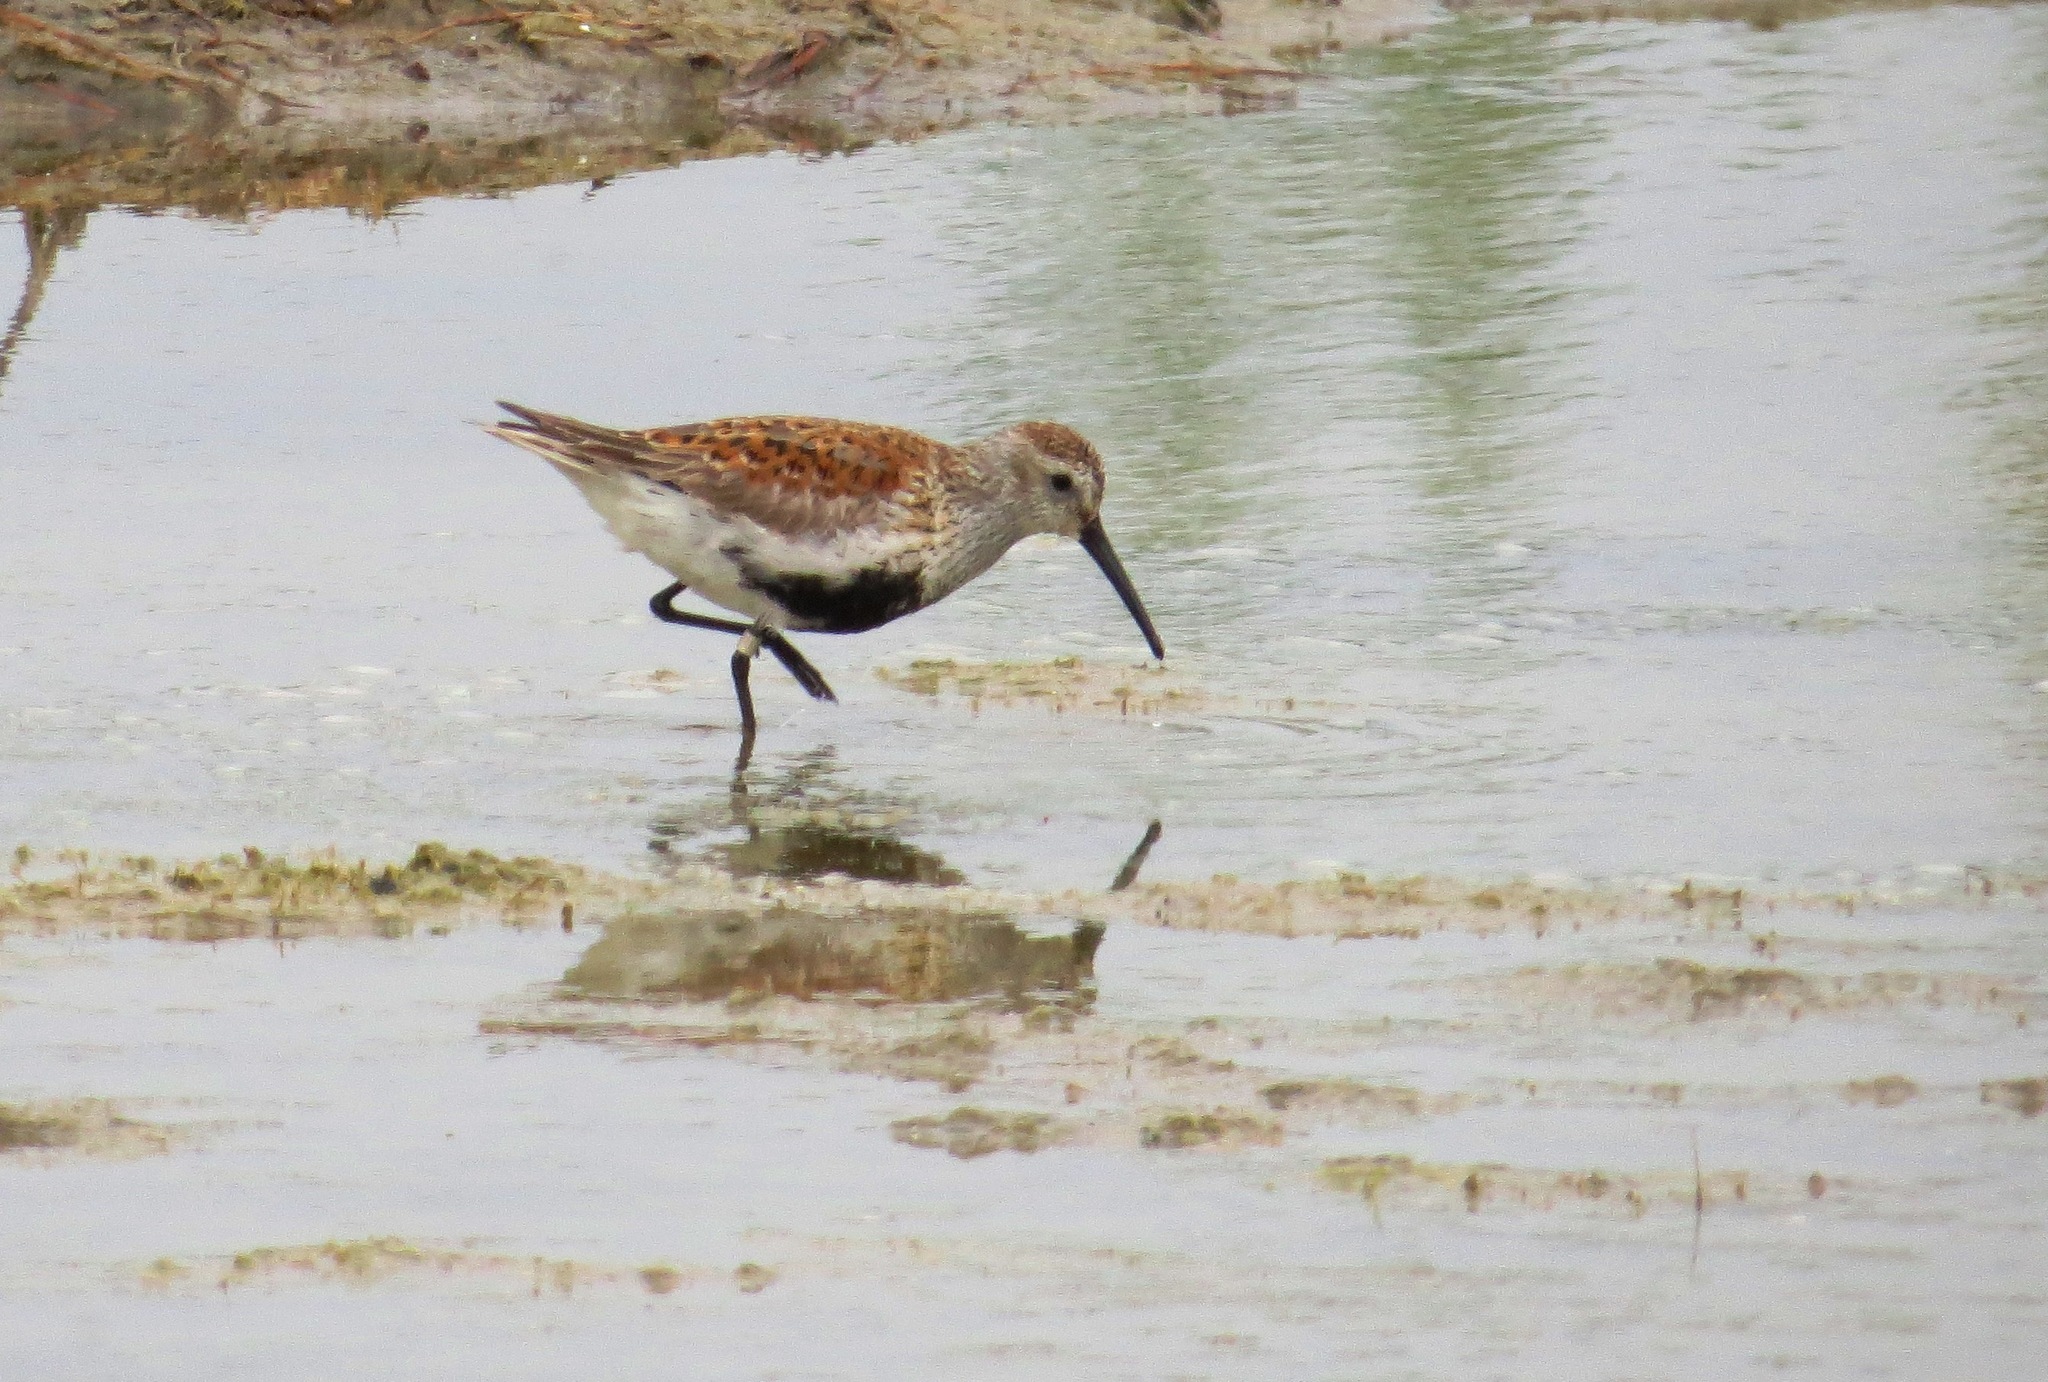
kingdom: Animalia
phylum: Chordata
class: Aves
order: Charadriiformes
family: Scolopacidae
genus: Calidris
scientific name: Calidris alpina
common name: Dunlin
